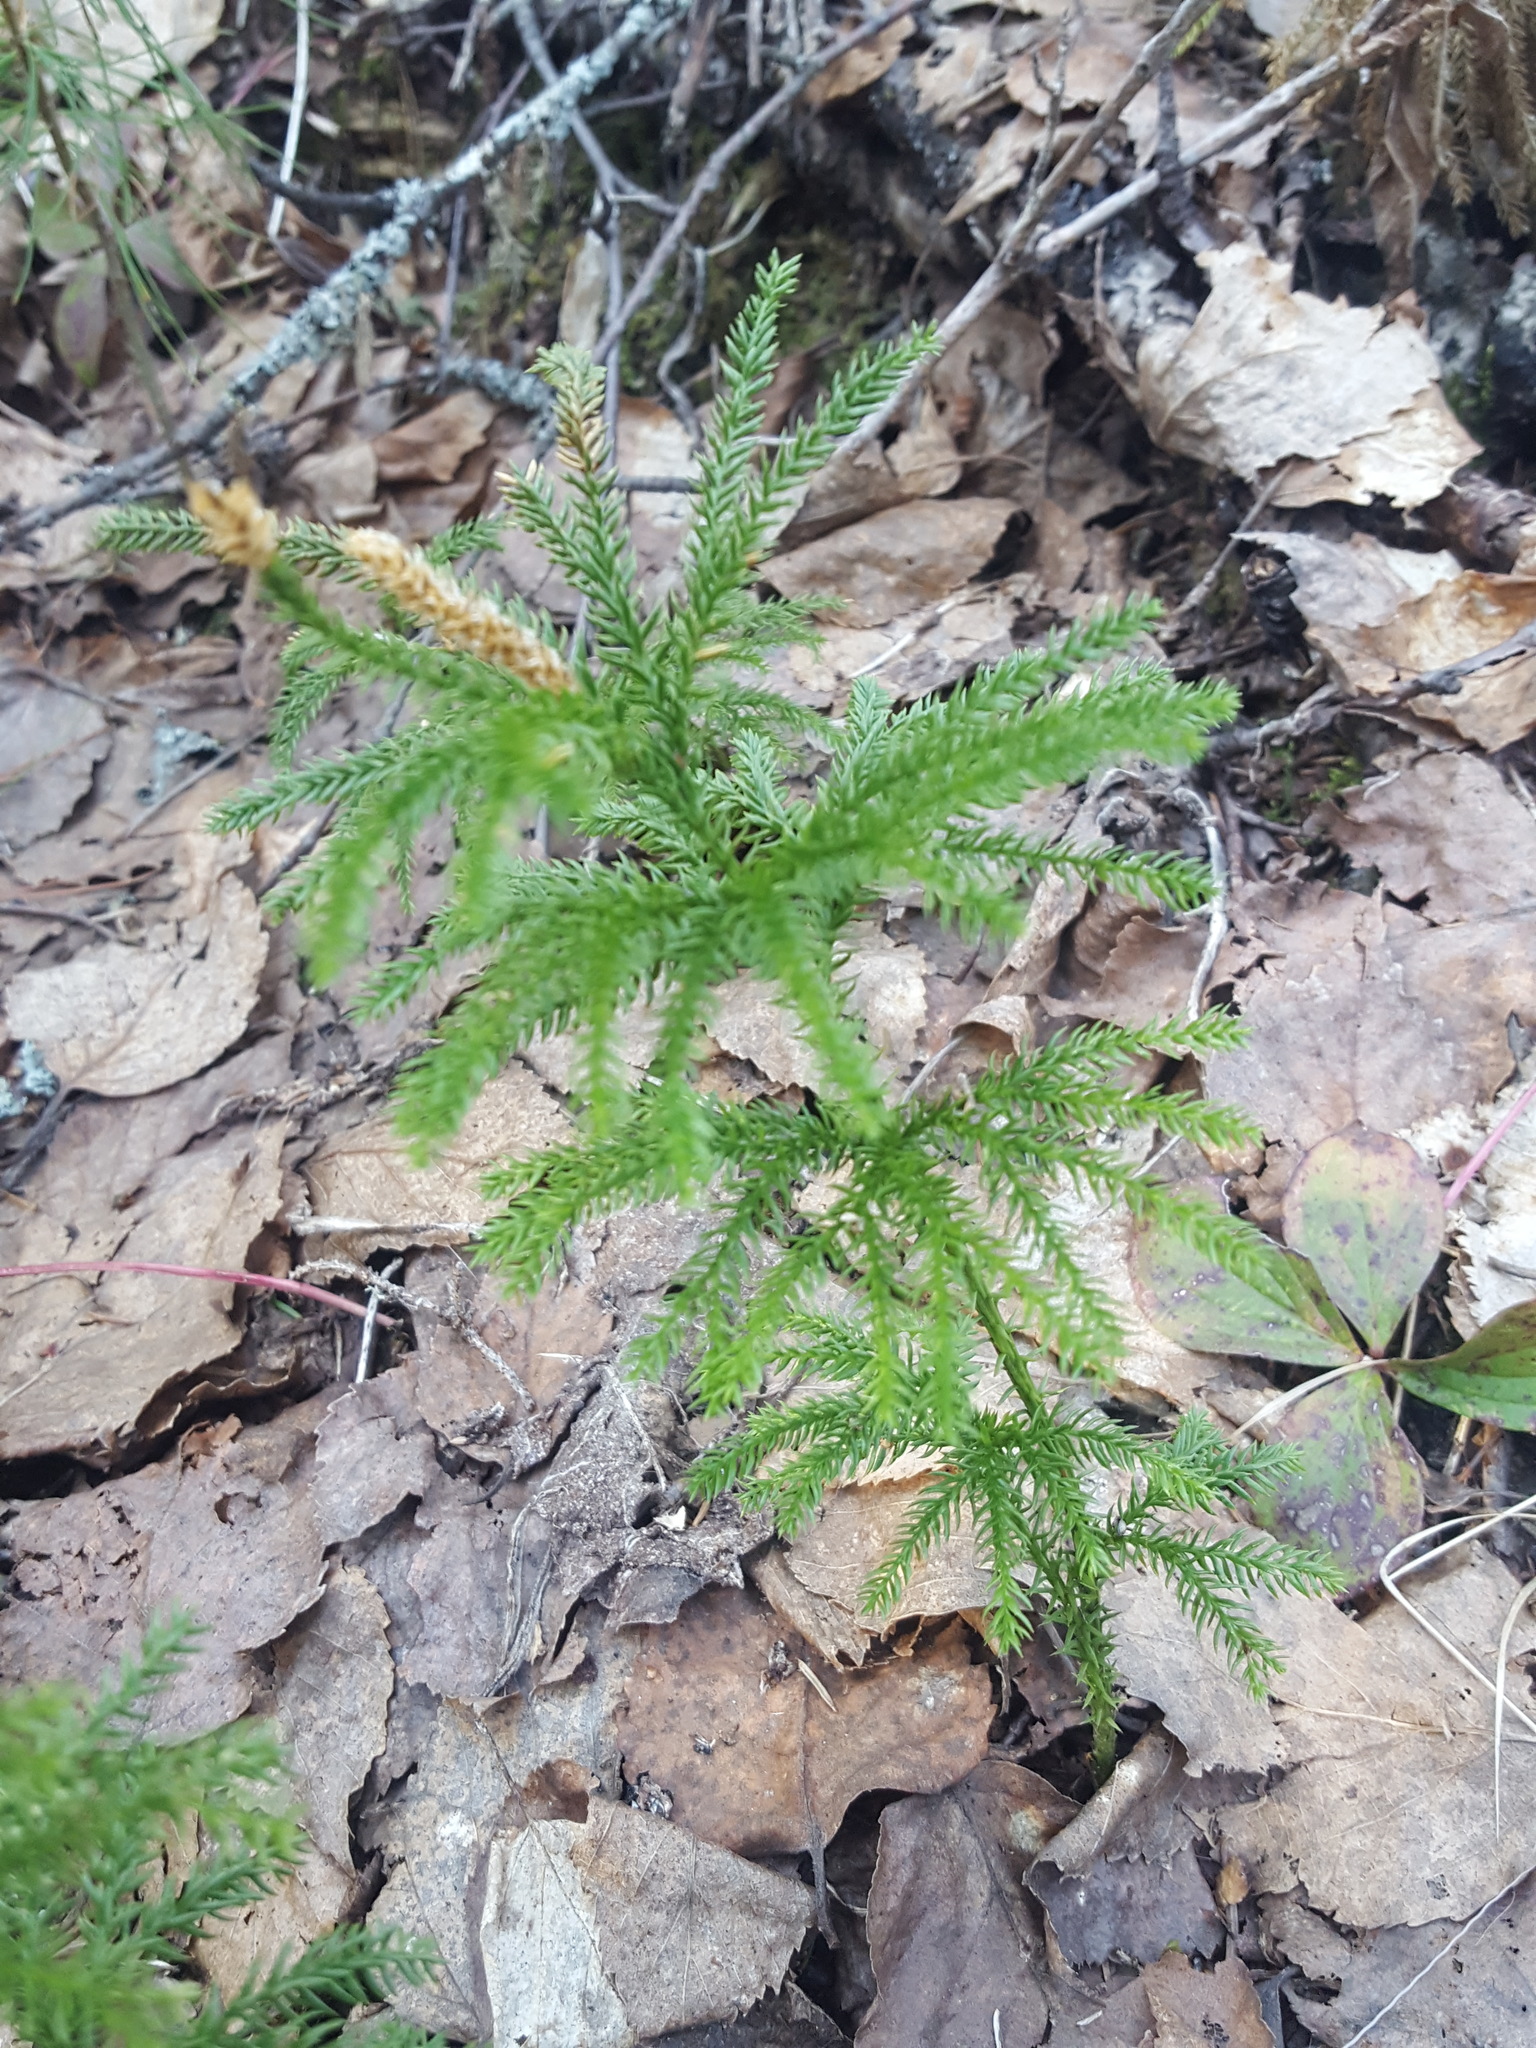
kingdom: Plantae
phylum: Tracheophyta
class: Lycopodiopsida
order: Lycopodiales
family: Lycopodiaceae
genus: Dendrolycopodium
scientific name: Dendrolycopodium dendroideum
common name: Northern tree-clubmoss
